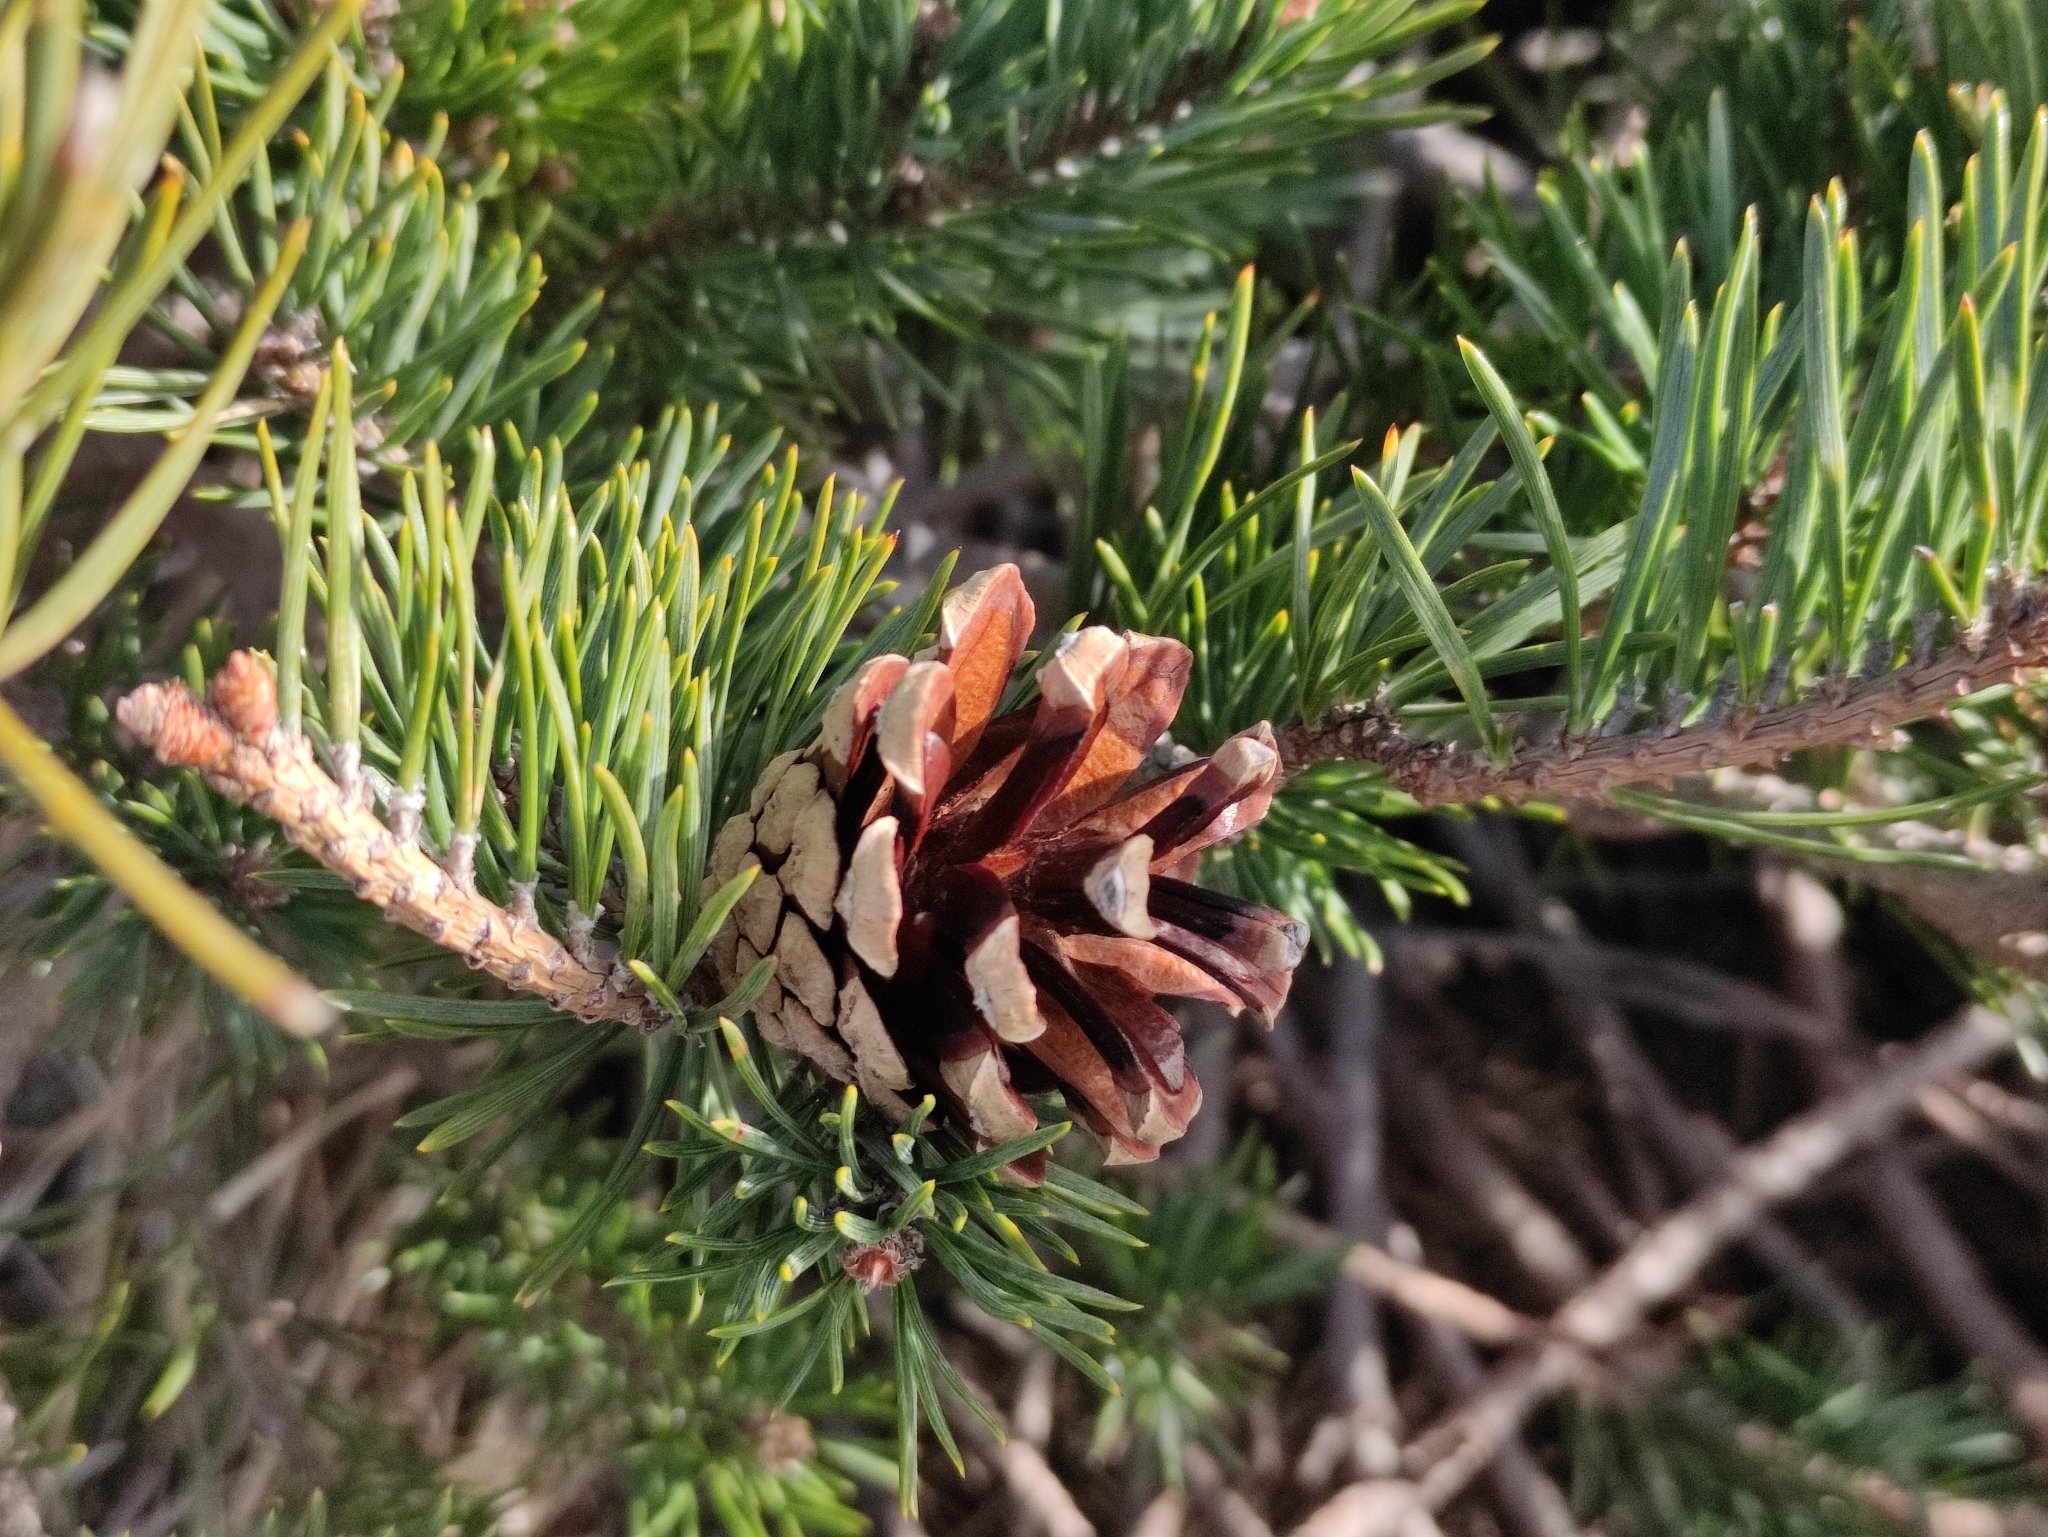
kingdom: Plantae
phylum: Tracheophyta
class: Pinopsida
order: Pinales
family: Pinaceae
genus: Pinus
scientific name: Pinus sylvestris
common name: Scots pine
